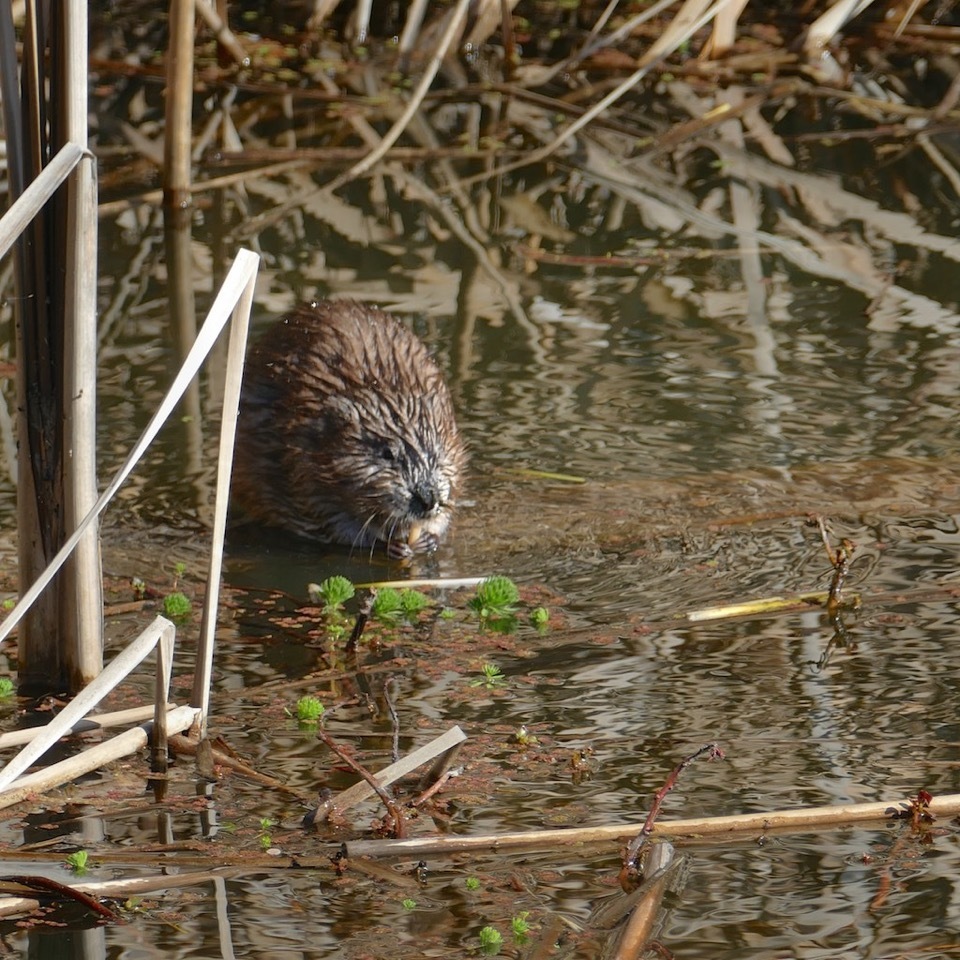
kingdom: Animalia
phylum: Chordata
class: Mammalia
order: Rodentia
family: Cricetidae
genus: Ondatra
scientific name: Ondatra zibethicus
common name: Muskrat
